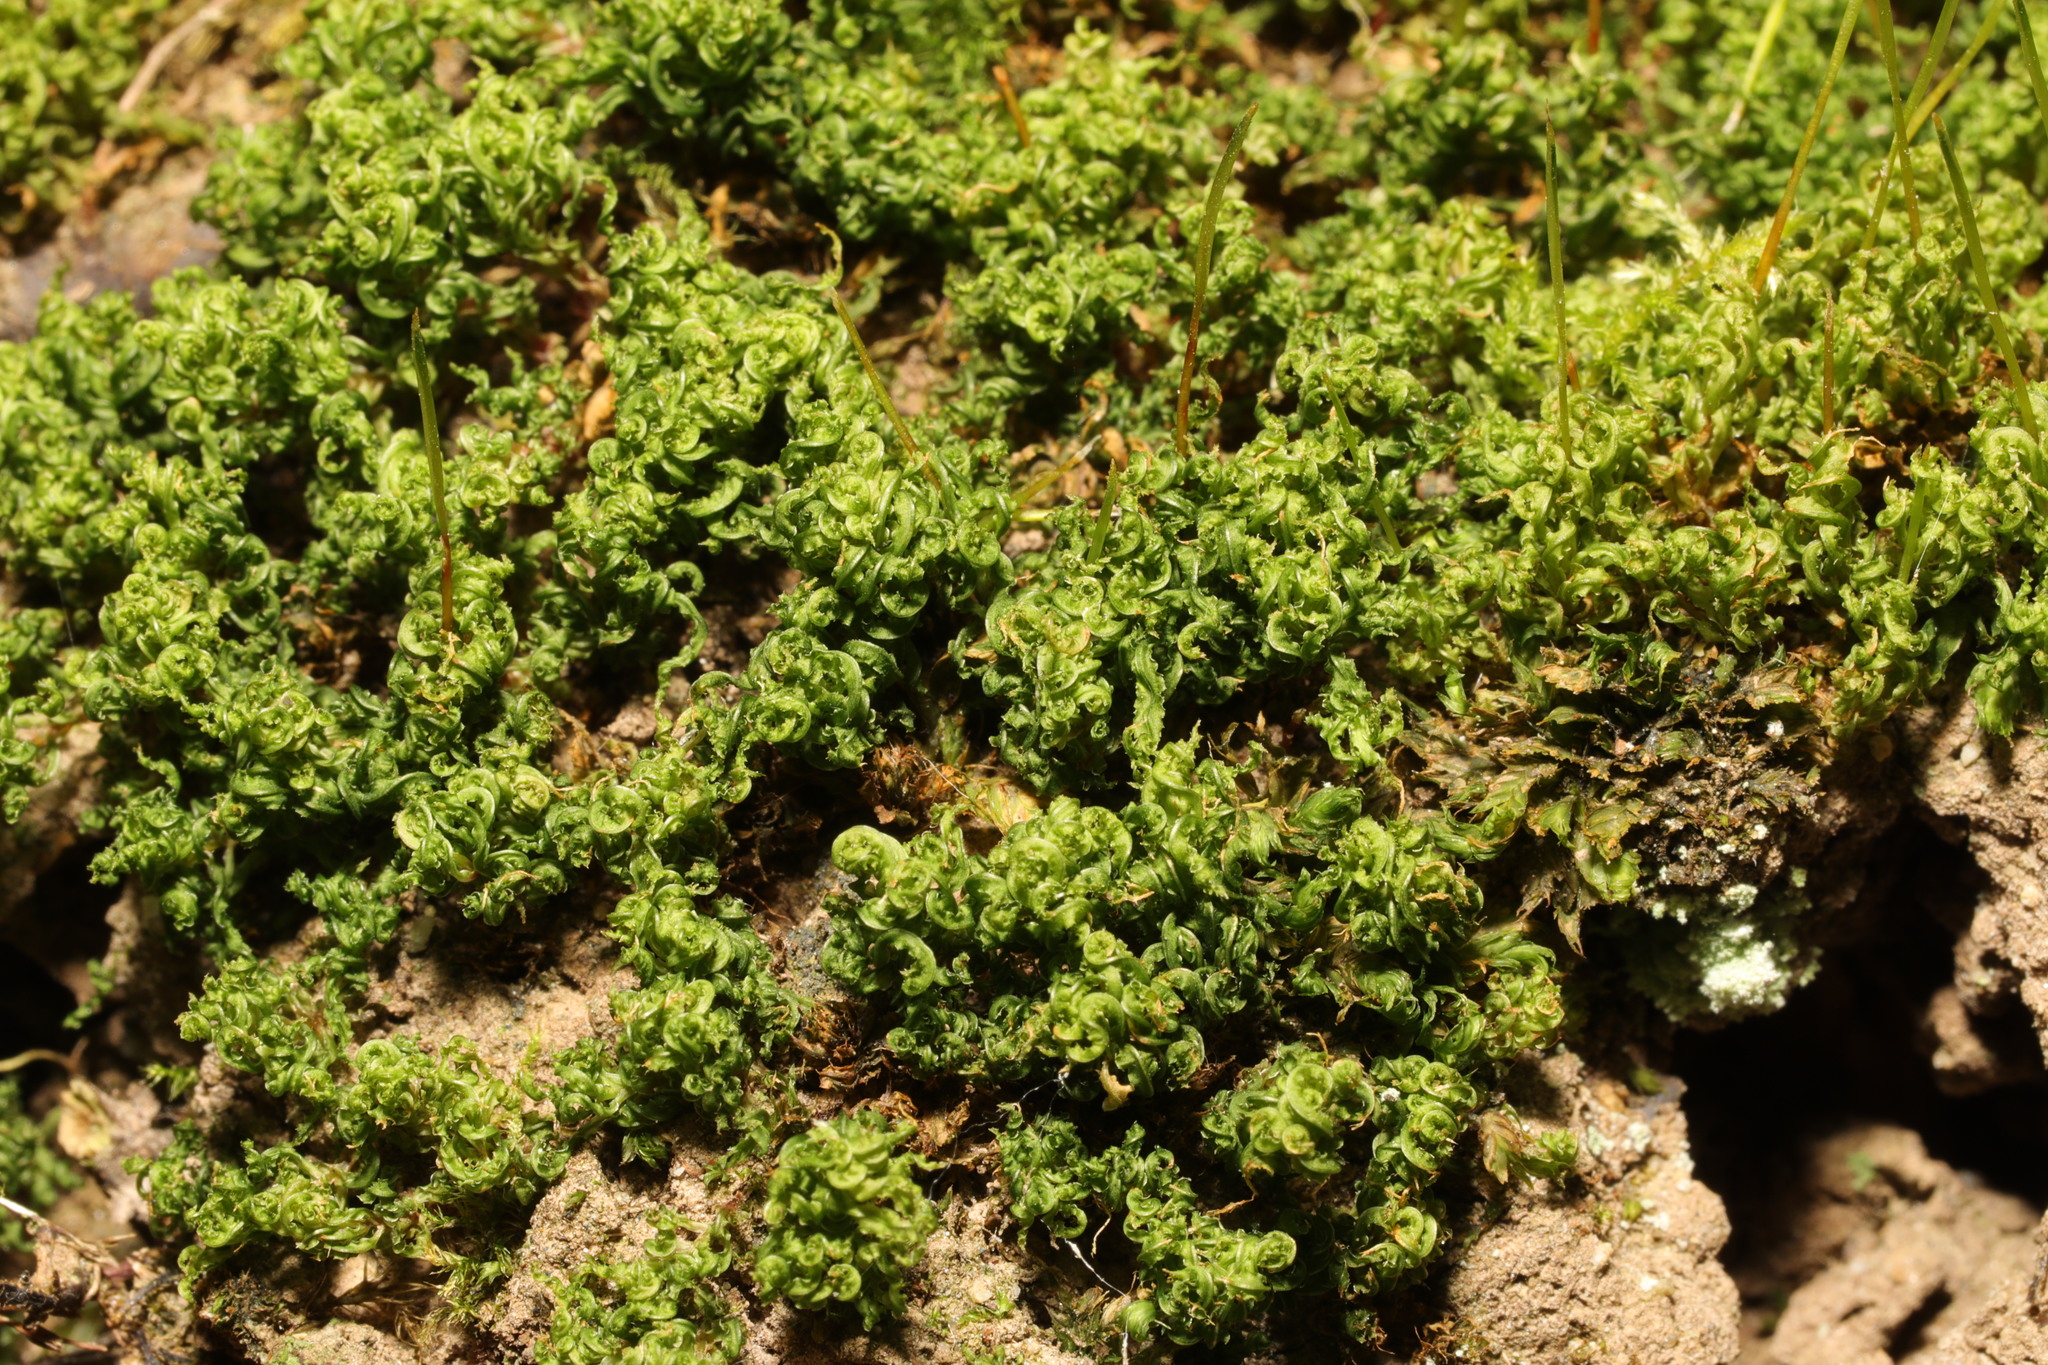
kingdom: Plantae
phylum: Bryophyta
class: Bryopsida
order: Bryales
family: Mniaceae
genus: Mnium
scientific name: Mnium hornum
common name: Swan's-neck leafy moss
